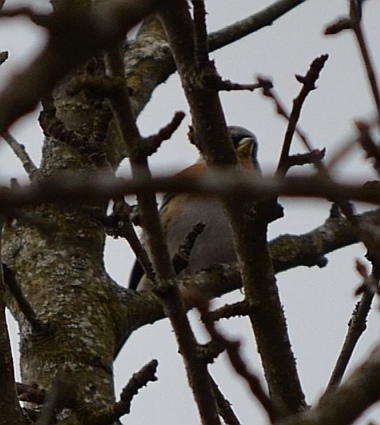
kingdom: Animalia
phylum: Chordata
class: Aves
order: Passeriformes
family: Fringillidae
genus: Fringilla
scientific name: Fringilla montifringilla
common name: Brambling
